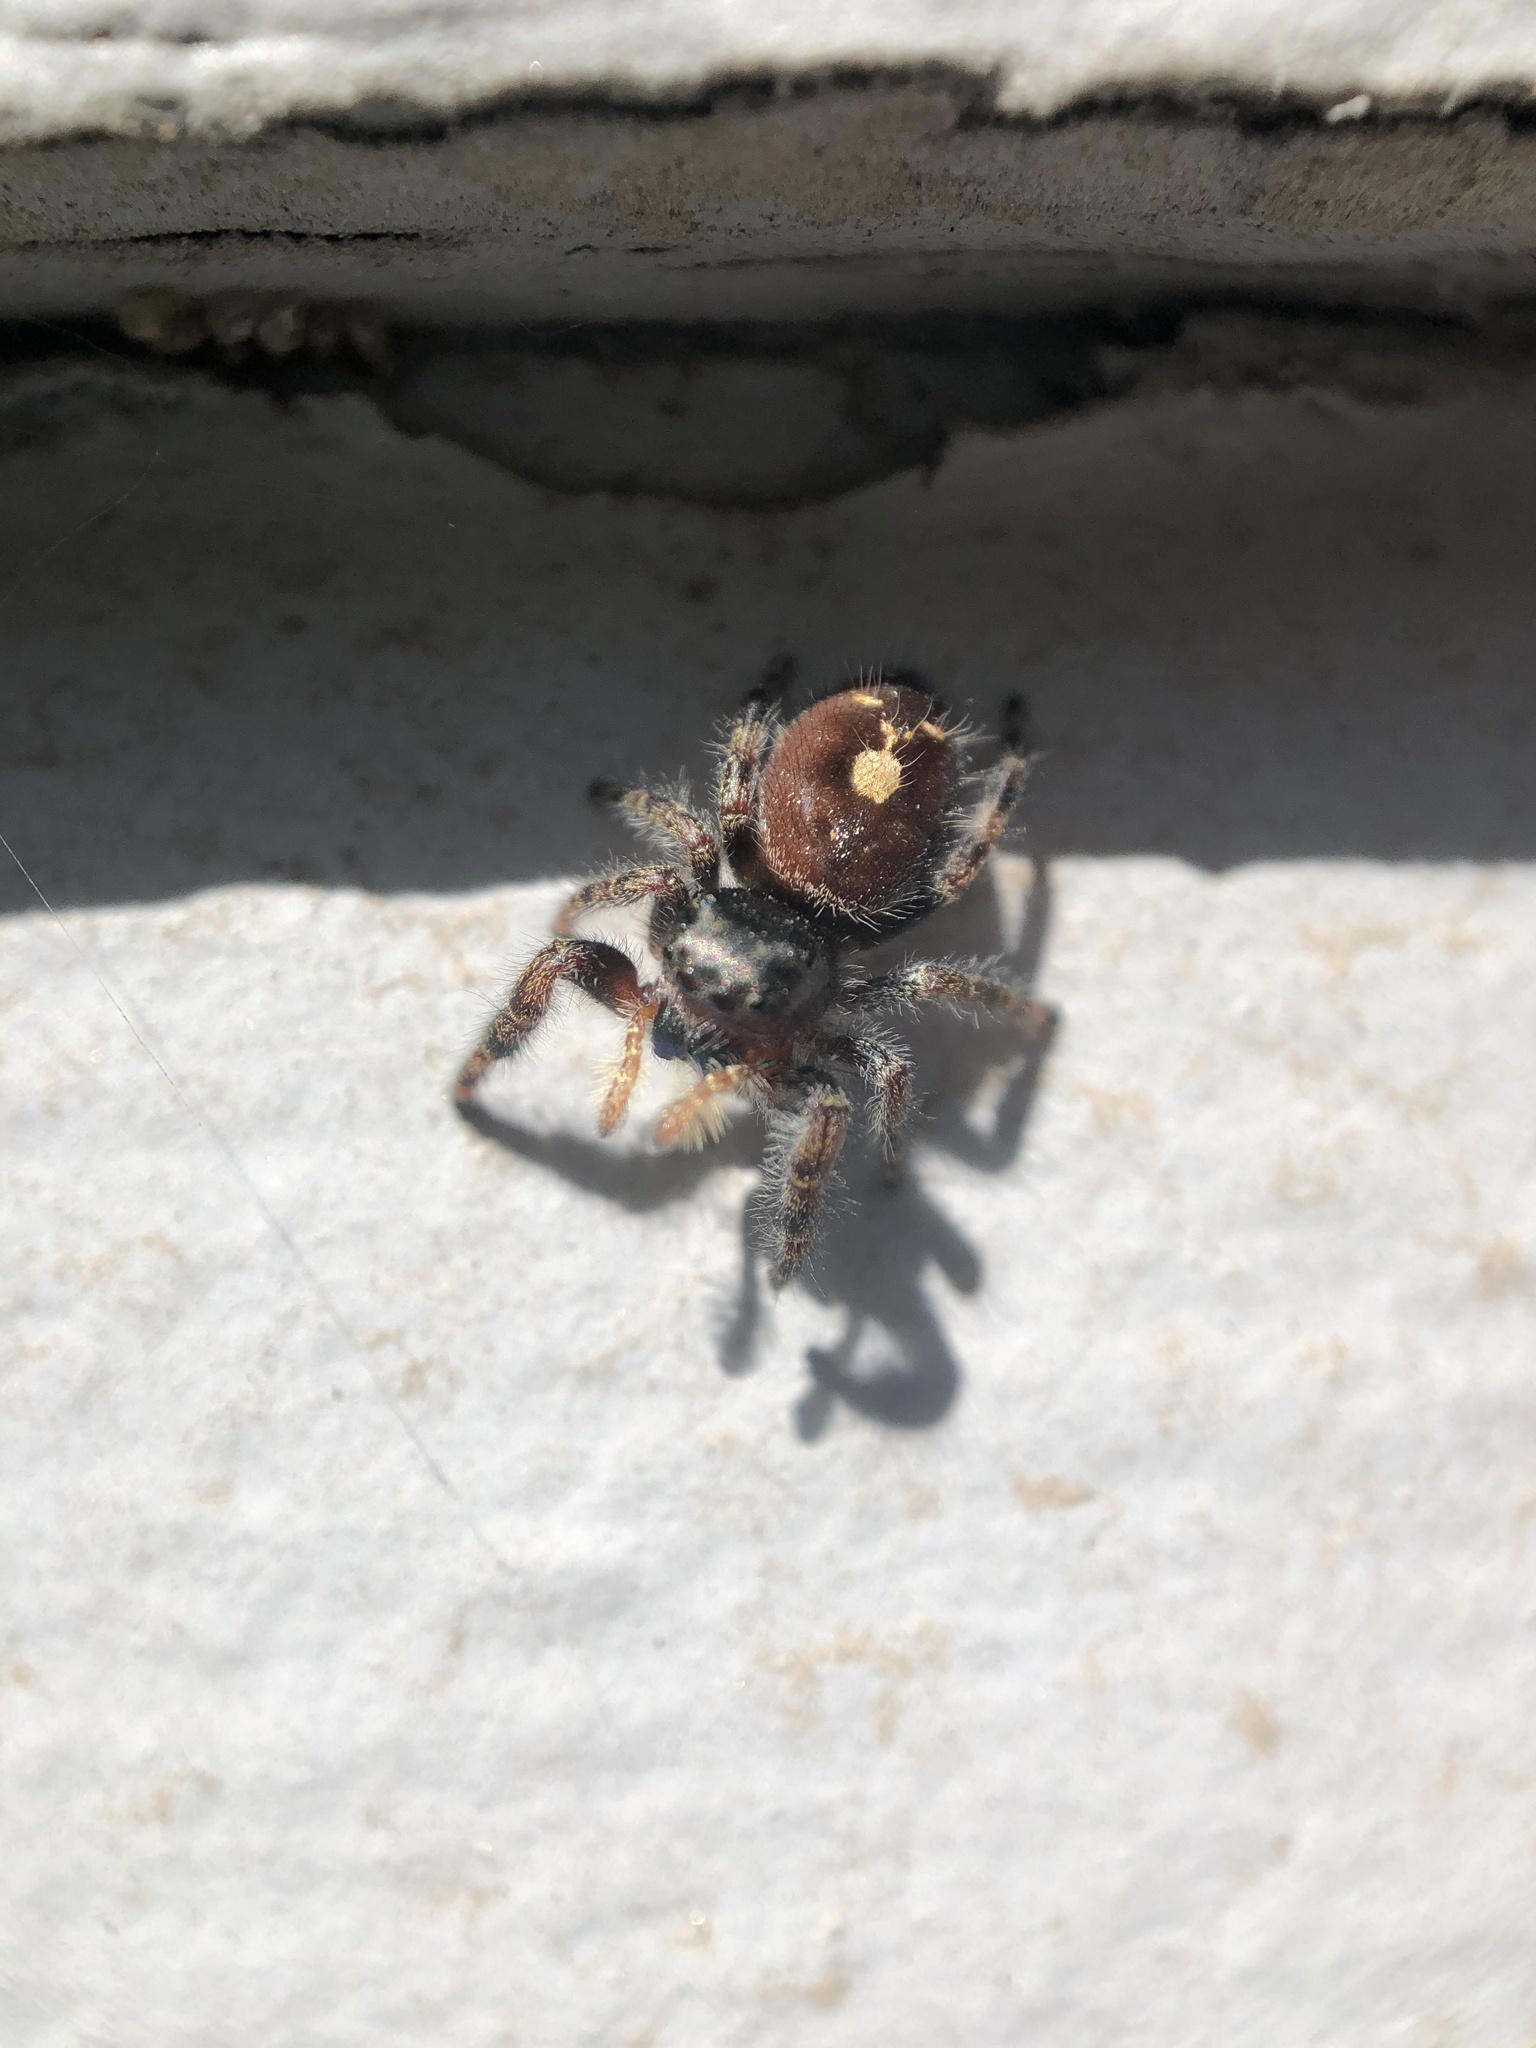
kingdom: Animalia
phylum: Arthropoda
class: Arachnida
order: Araneae
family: Salticidae
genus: Phidippus
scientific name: Phidippus audax
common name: Bold jumper
